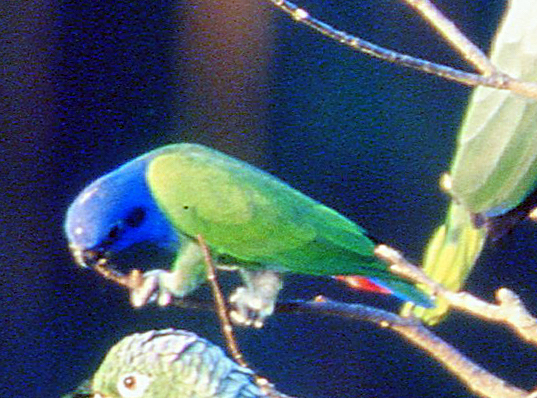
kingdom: Animalia
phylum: Chordata
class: Aves
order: Psittaciformes
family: Psittacidae
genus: Pionus
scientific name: Pionus menstruus
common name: Blue-headed parrot
